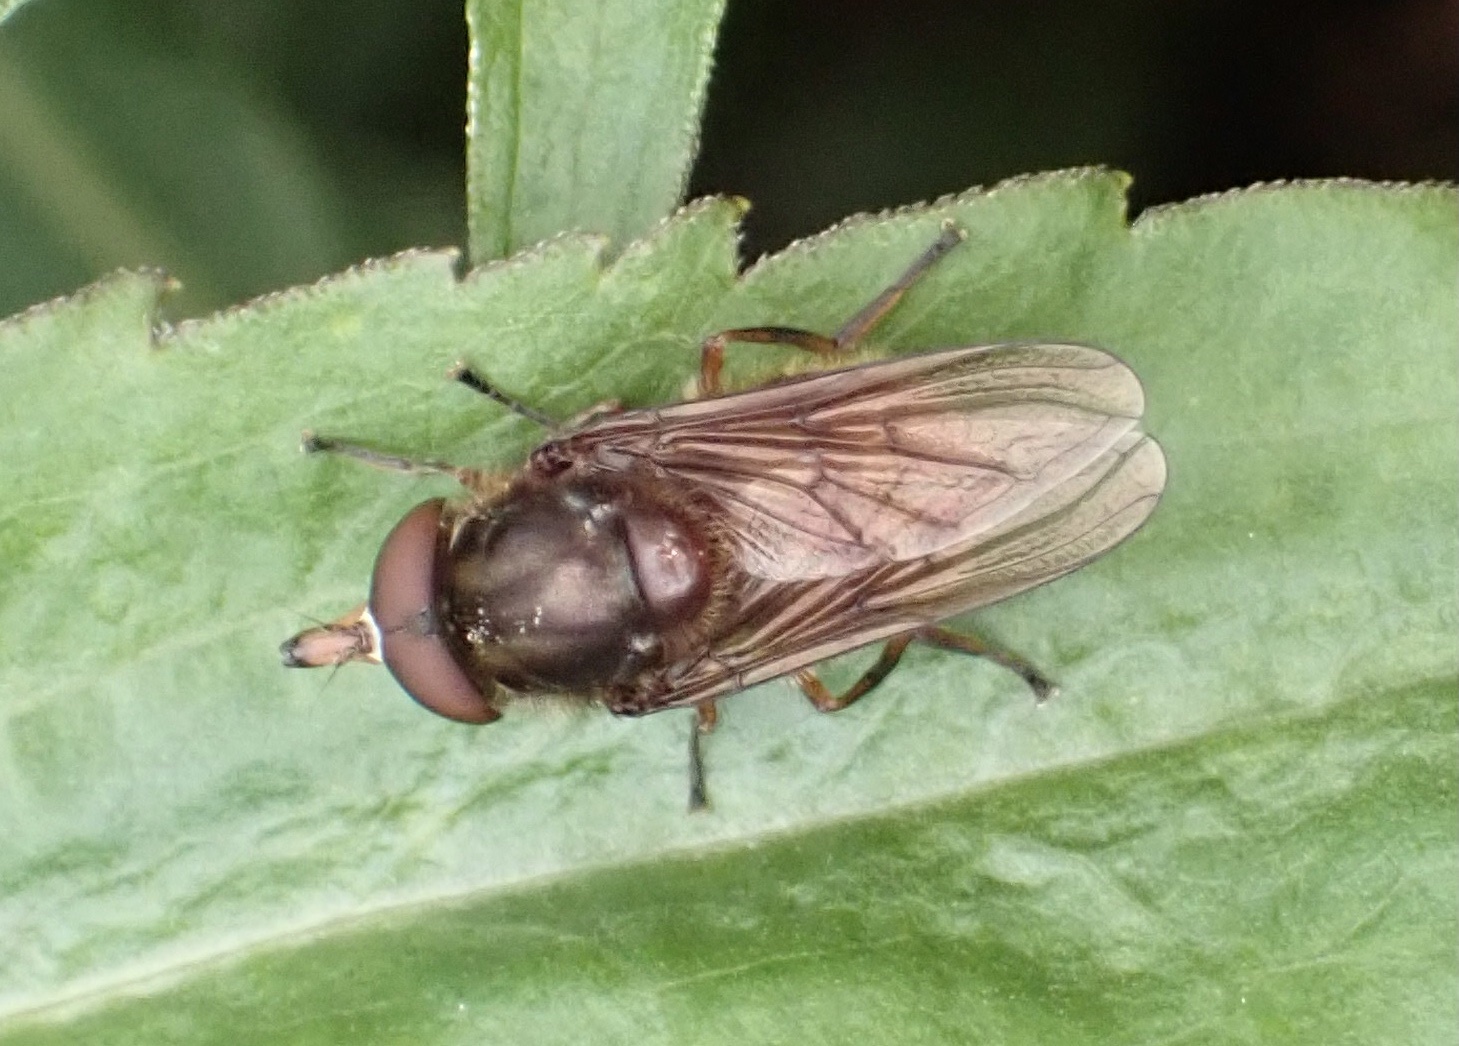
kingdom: Animalia
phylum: Arthropoda
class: Insecta
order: Diptera
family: Syrphidae
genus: Rhingia
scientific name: Rhingia campestris
